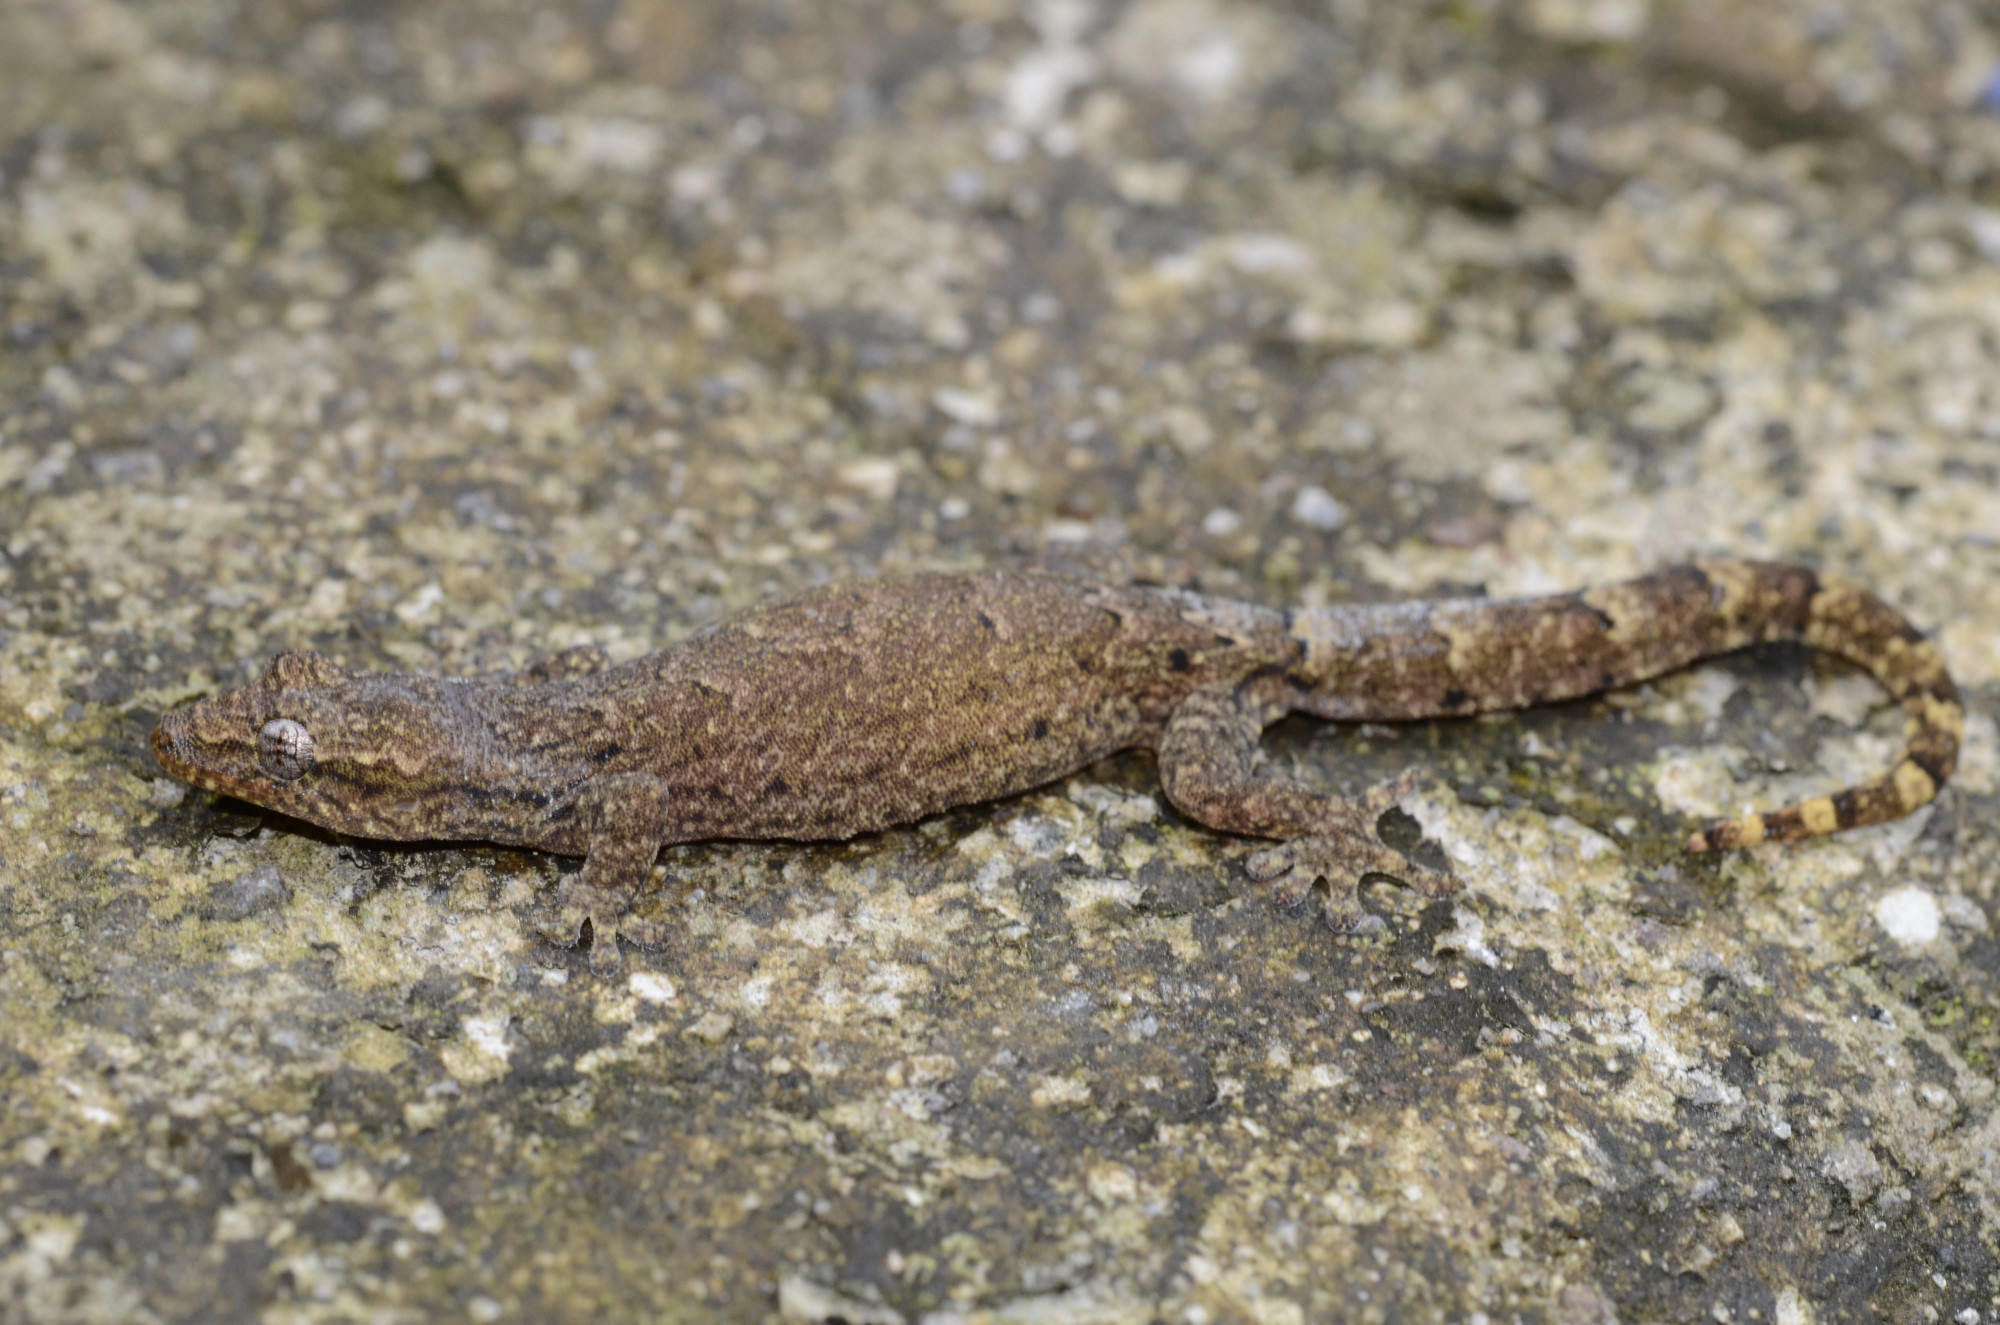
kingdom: Animalia
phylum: Chordata
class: Squamata
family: Gekkonidae
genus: Lepidodactylus
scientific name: Lepidodactylus lugubris
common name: Mourning gecko
